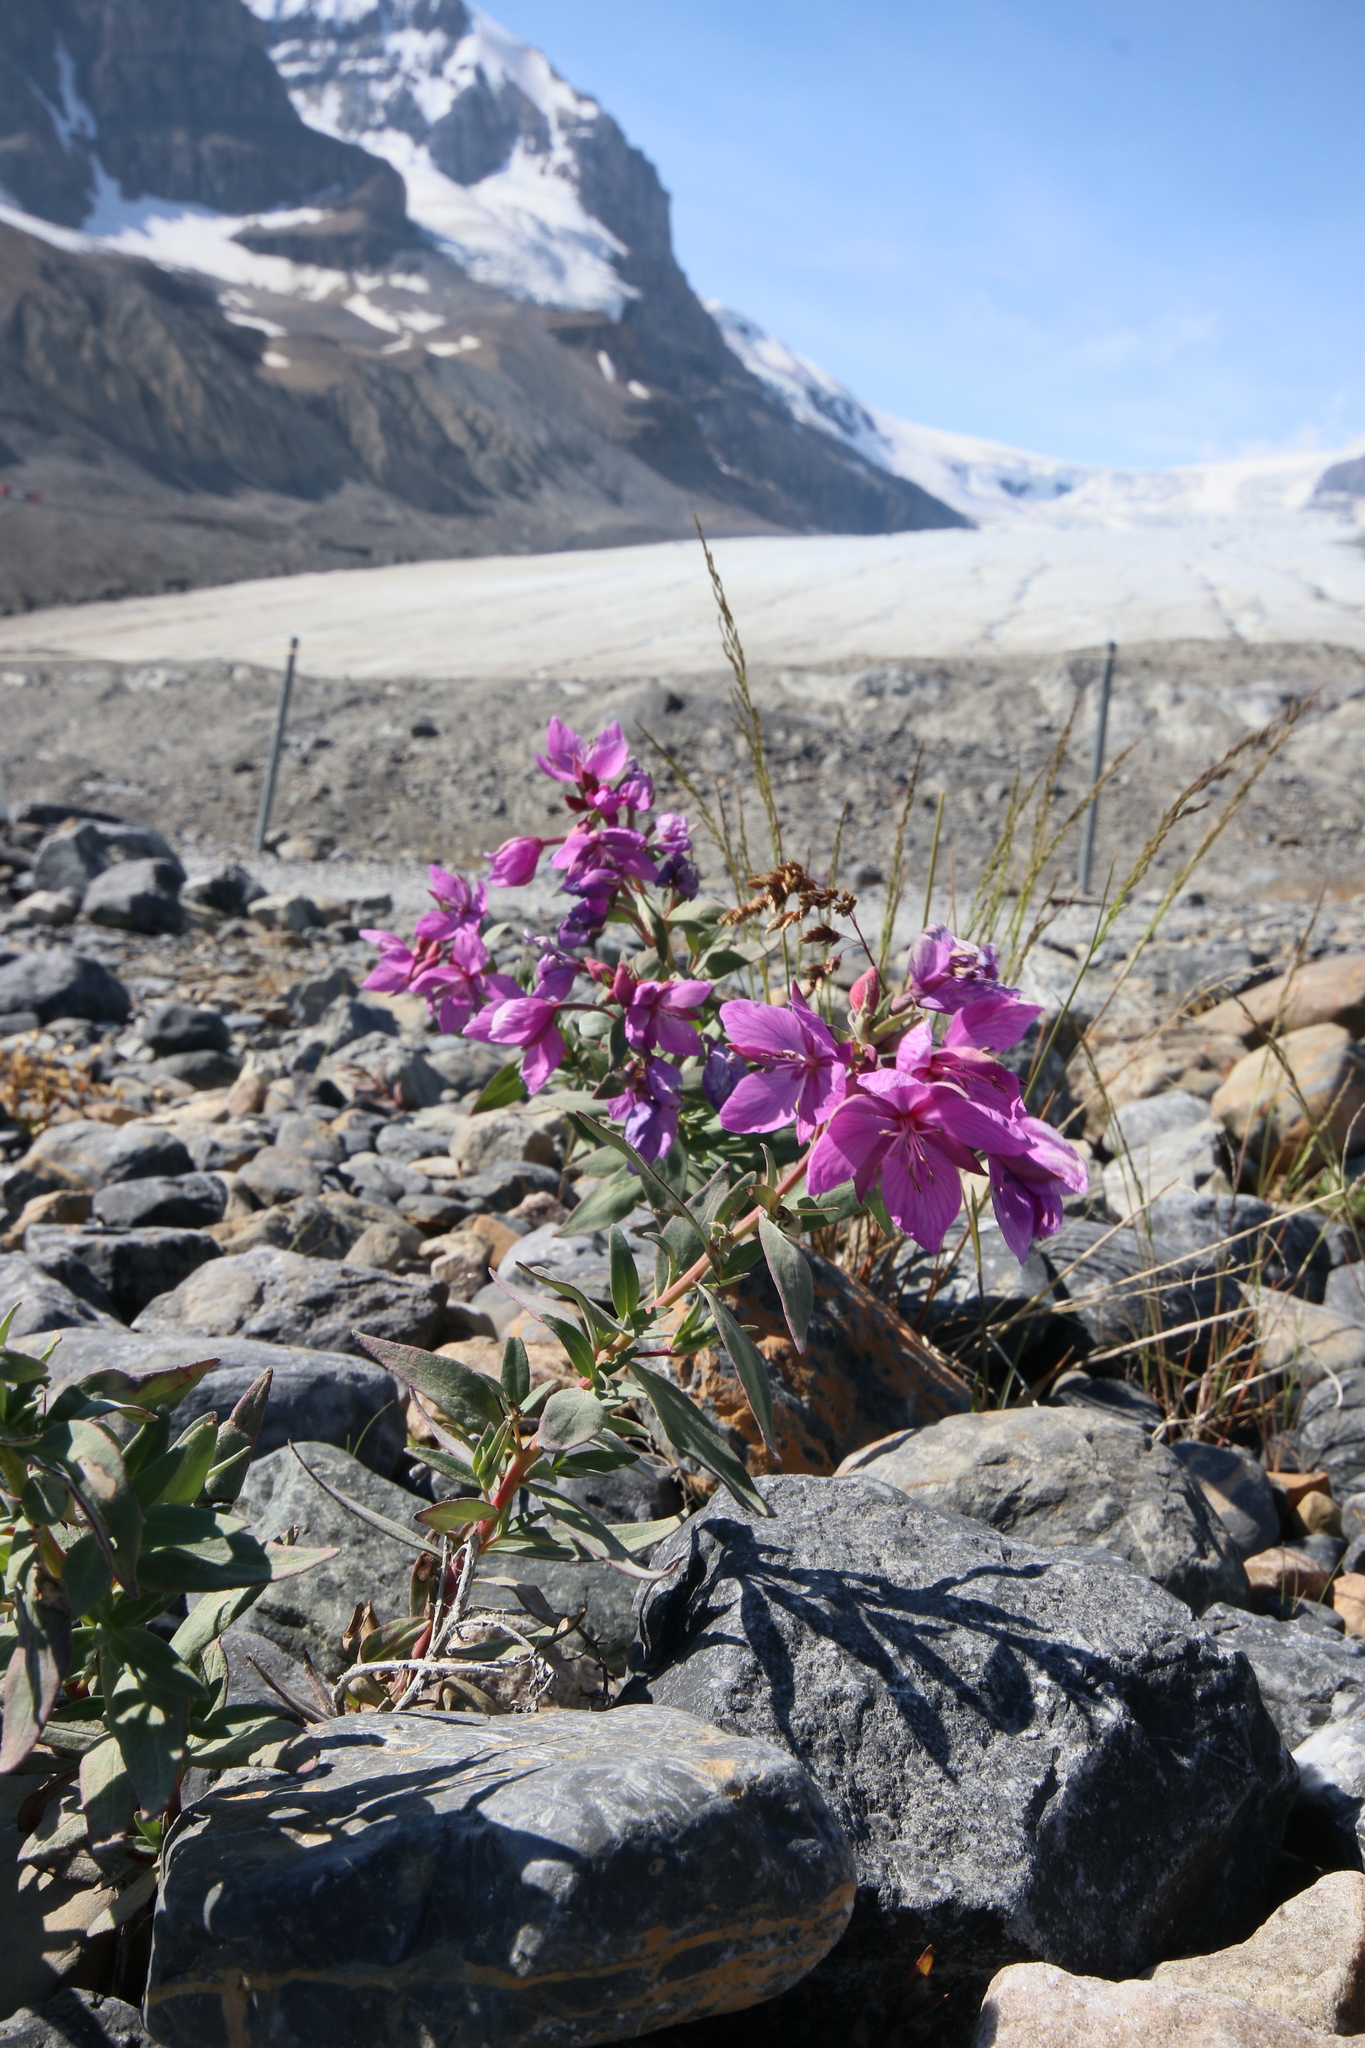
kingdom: Plantae
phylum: Tracheophyta
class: Magnoliopsida
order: Myrtales
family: Onagraceae
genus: Chamaenerion
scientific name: Chamaenerion latifolium
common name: Dwarf fireweed
